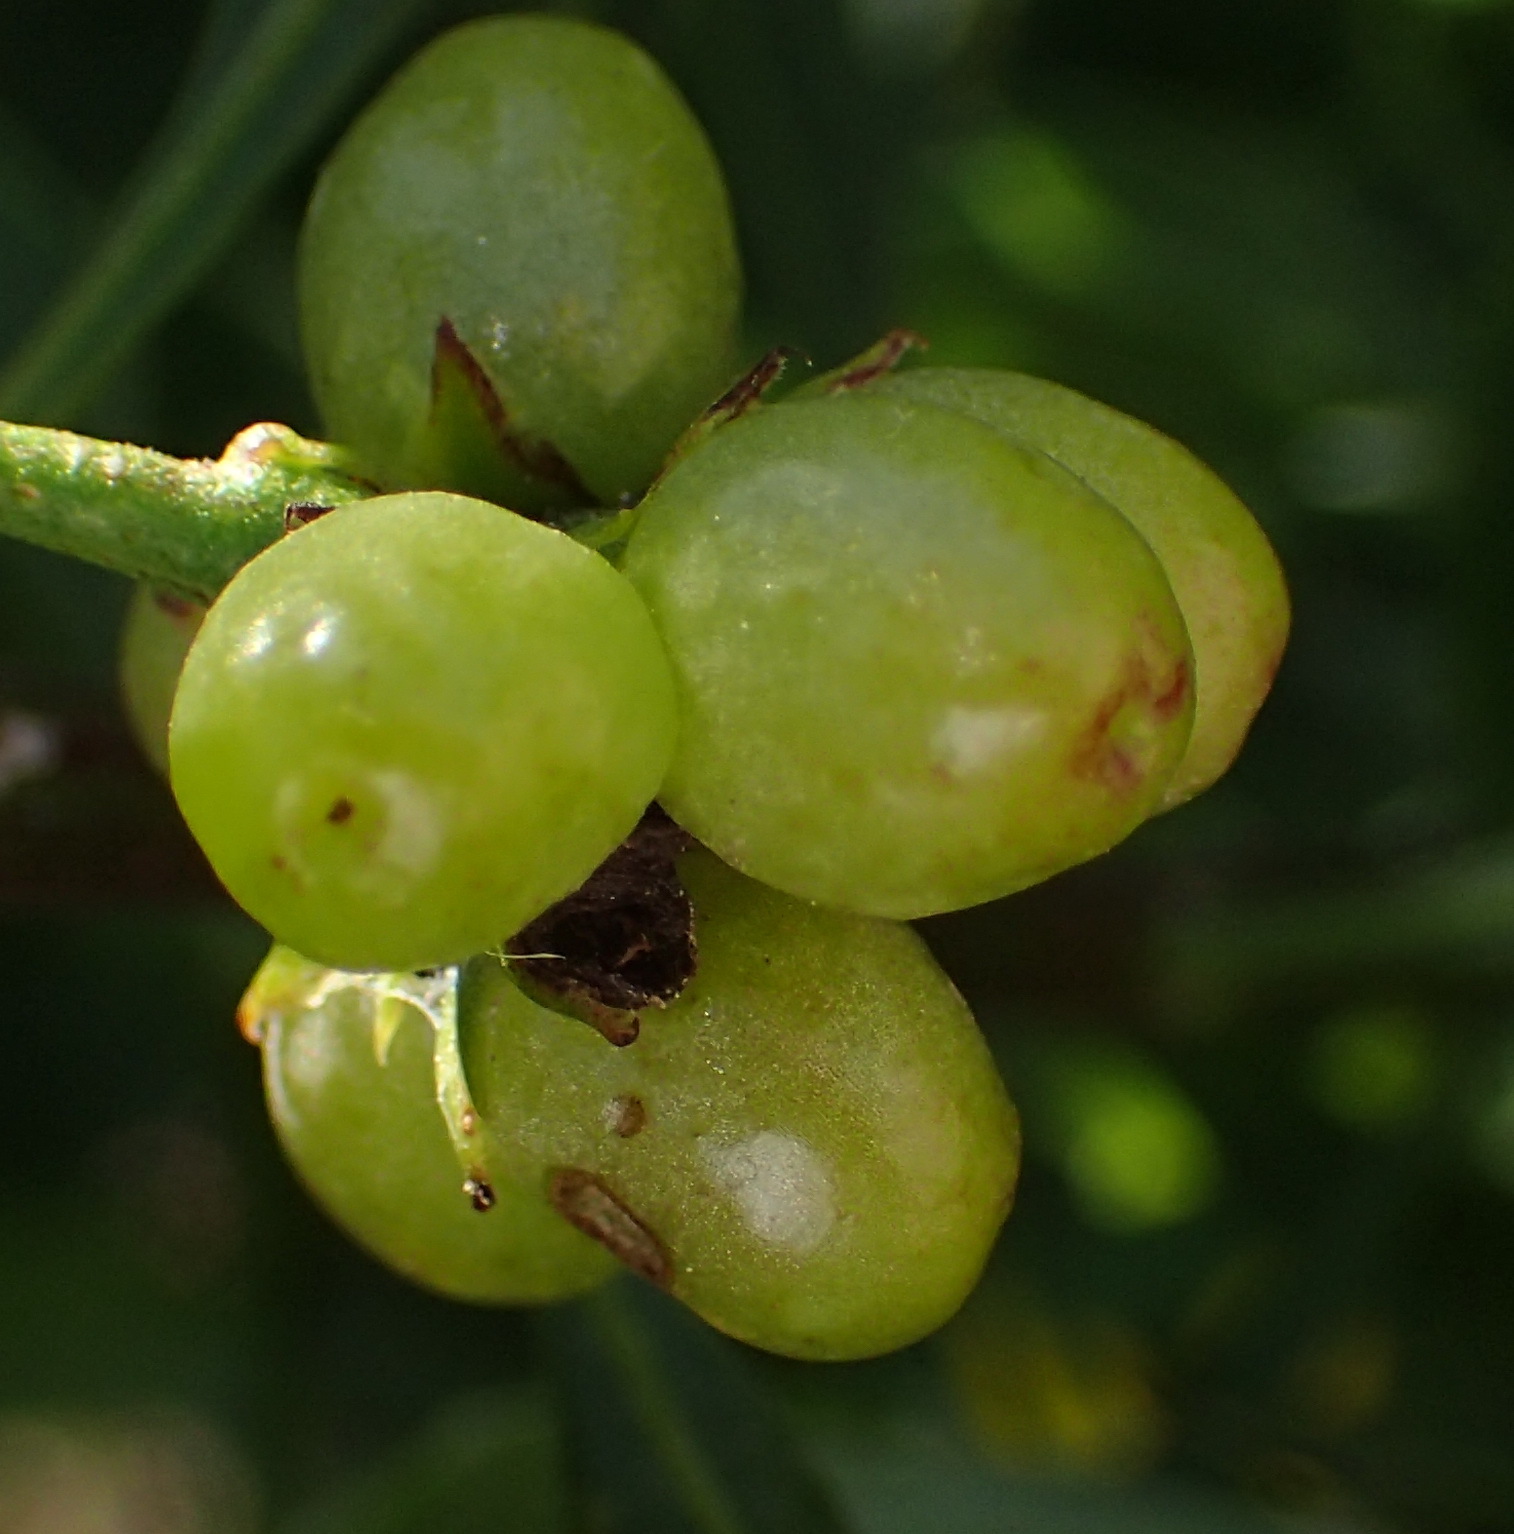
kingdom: Plantae
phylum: Tracheophyta
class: Magnoliopsida
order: Asterales
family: Asteraceae
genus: Osteospermum
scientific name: Osteospermum moniliferum
